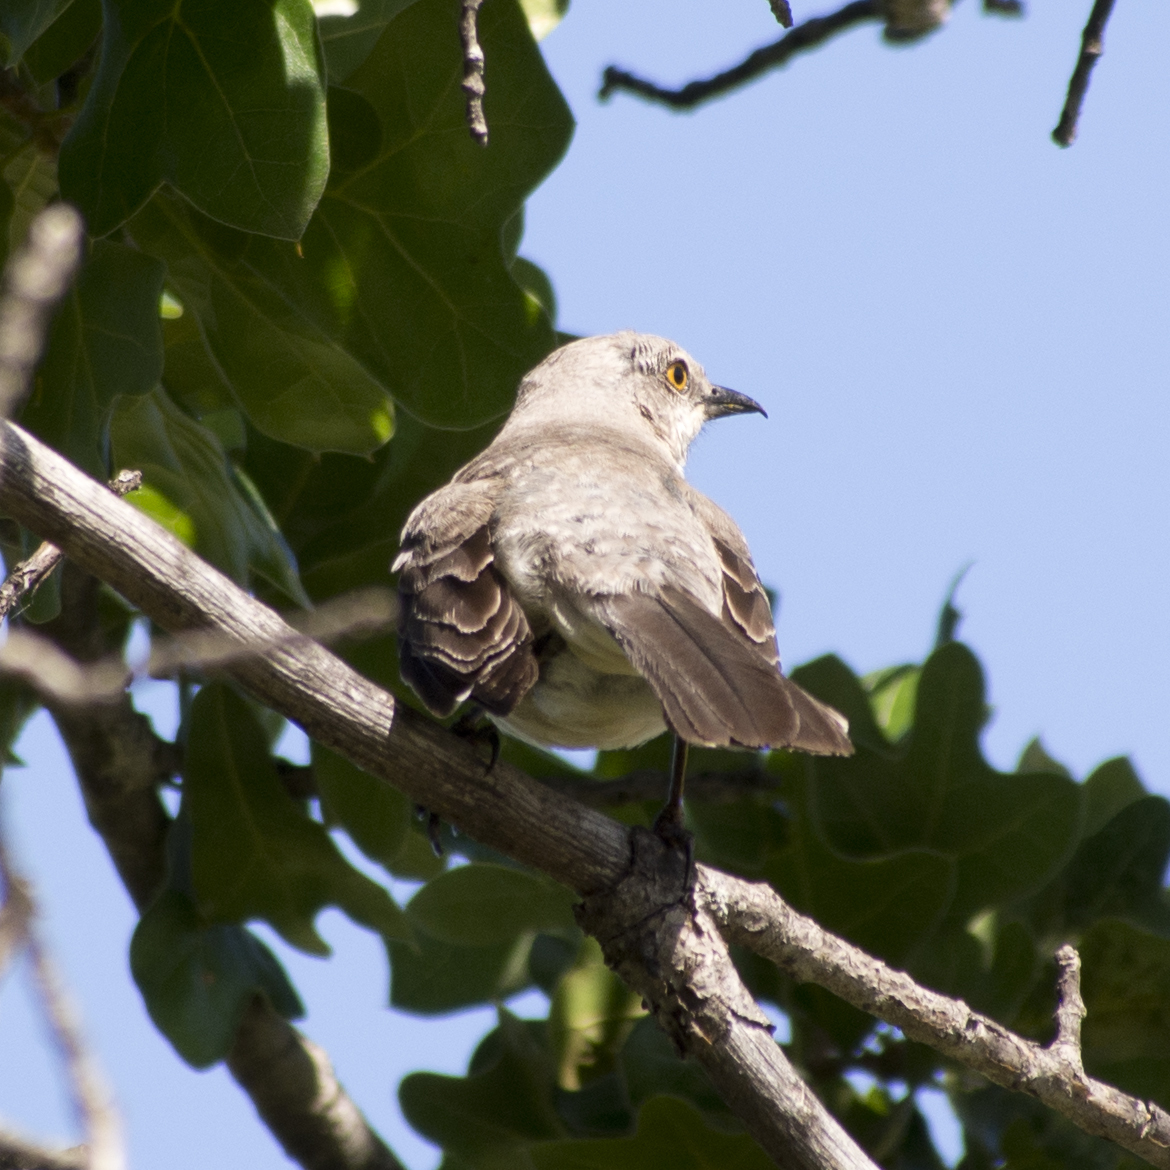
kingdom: Animalia
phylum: Chordata
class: Aves
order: Passeriformes
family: Mimidae
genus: Mimus
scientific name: Mimus polyglottos
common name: Northern mockingbird
